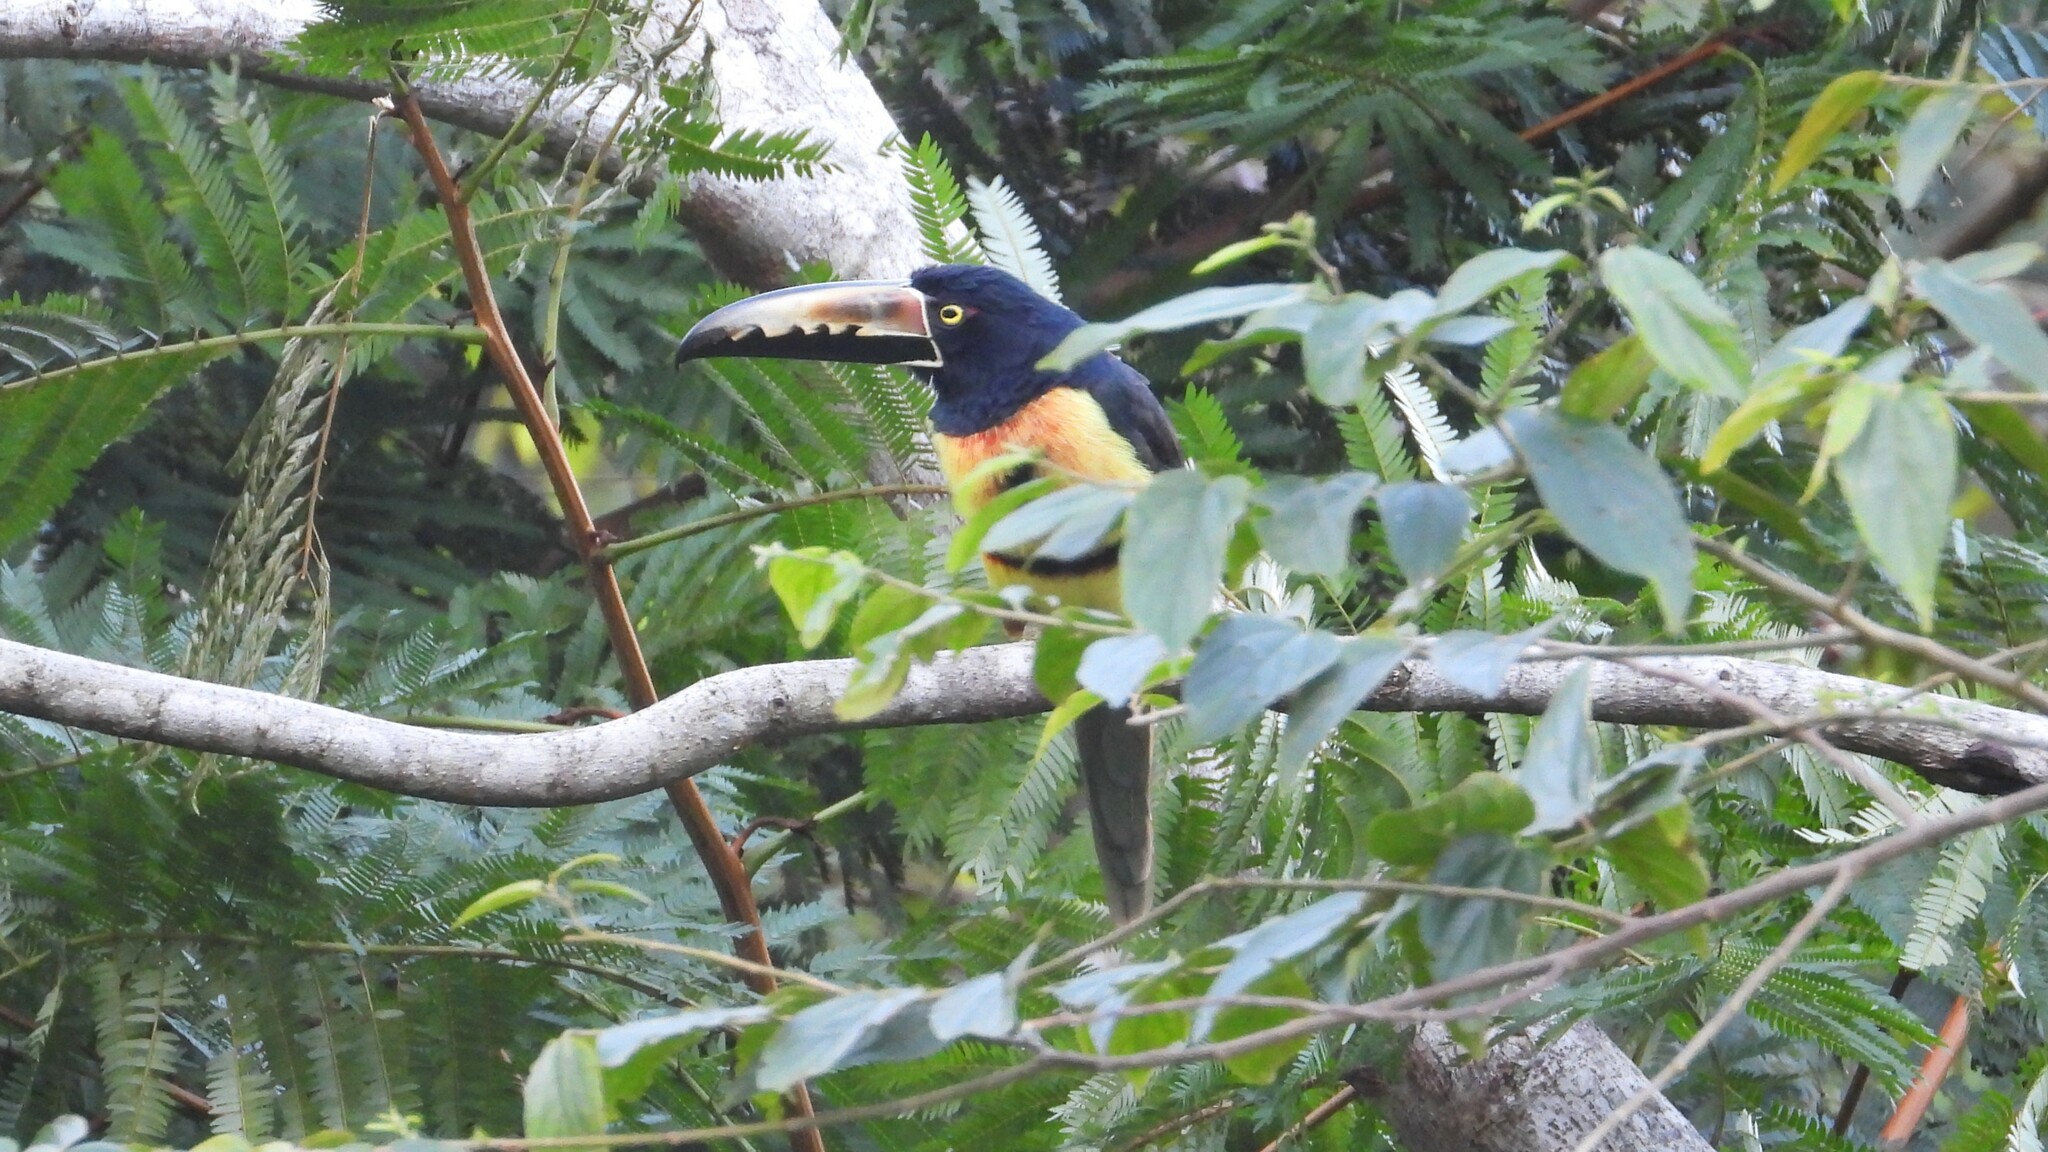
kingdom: Animalia
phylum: Chordata
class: Aves
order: Piciformes
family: Ramphastidae
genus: Pteroglossus
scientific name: Pteroglossus torquatus
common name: Collared aracari
